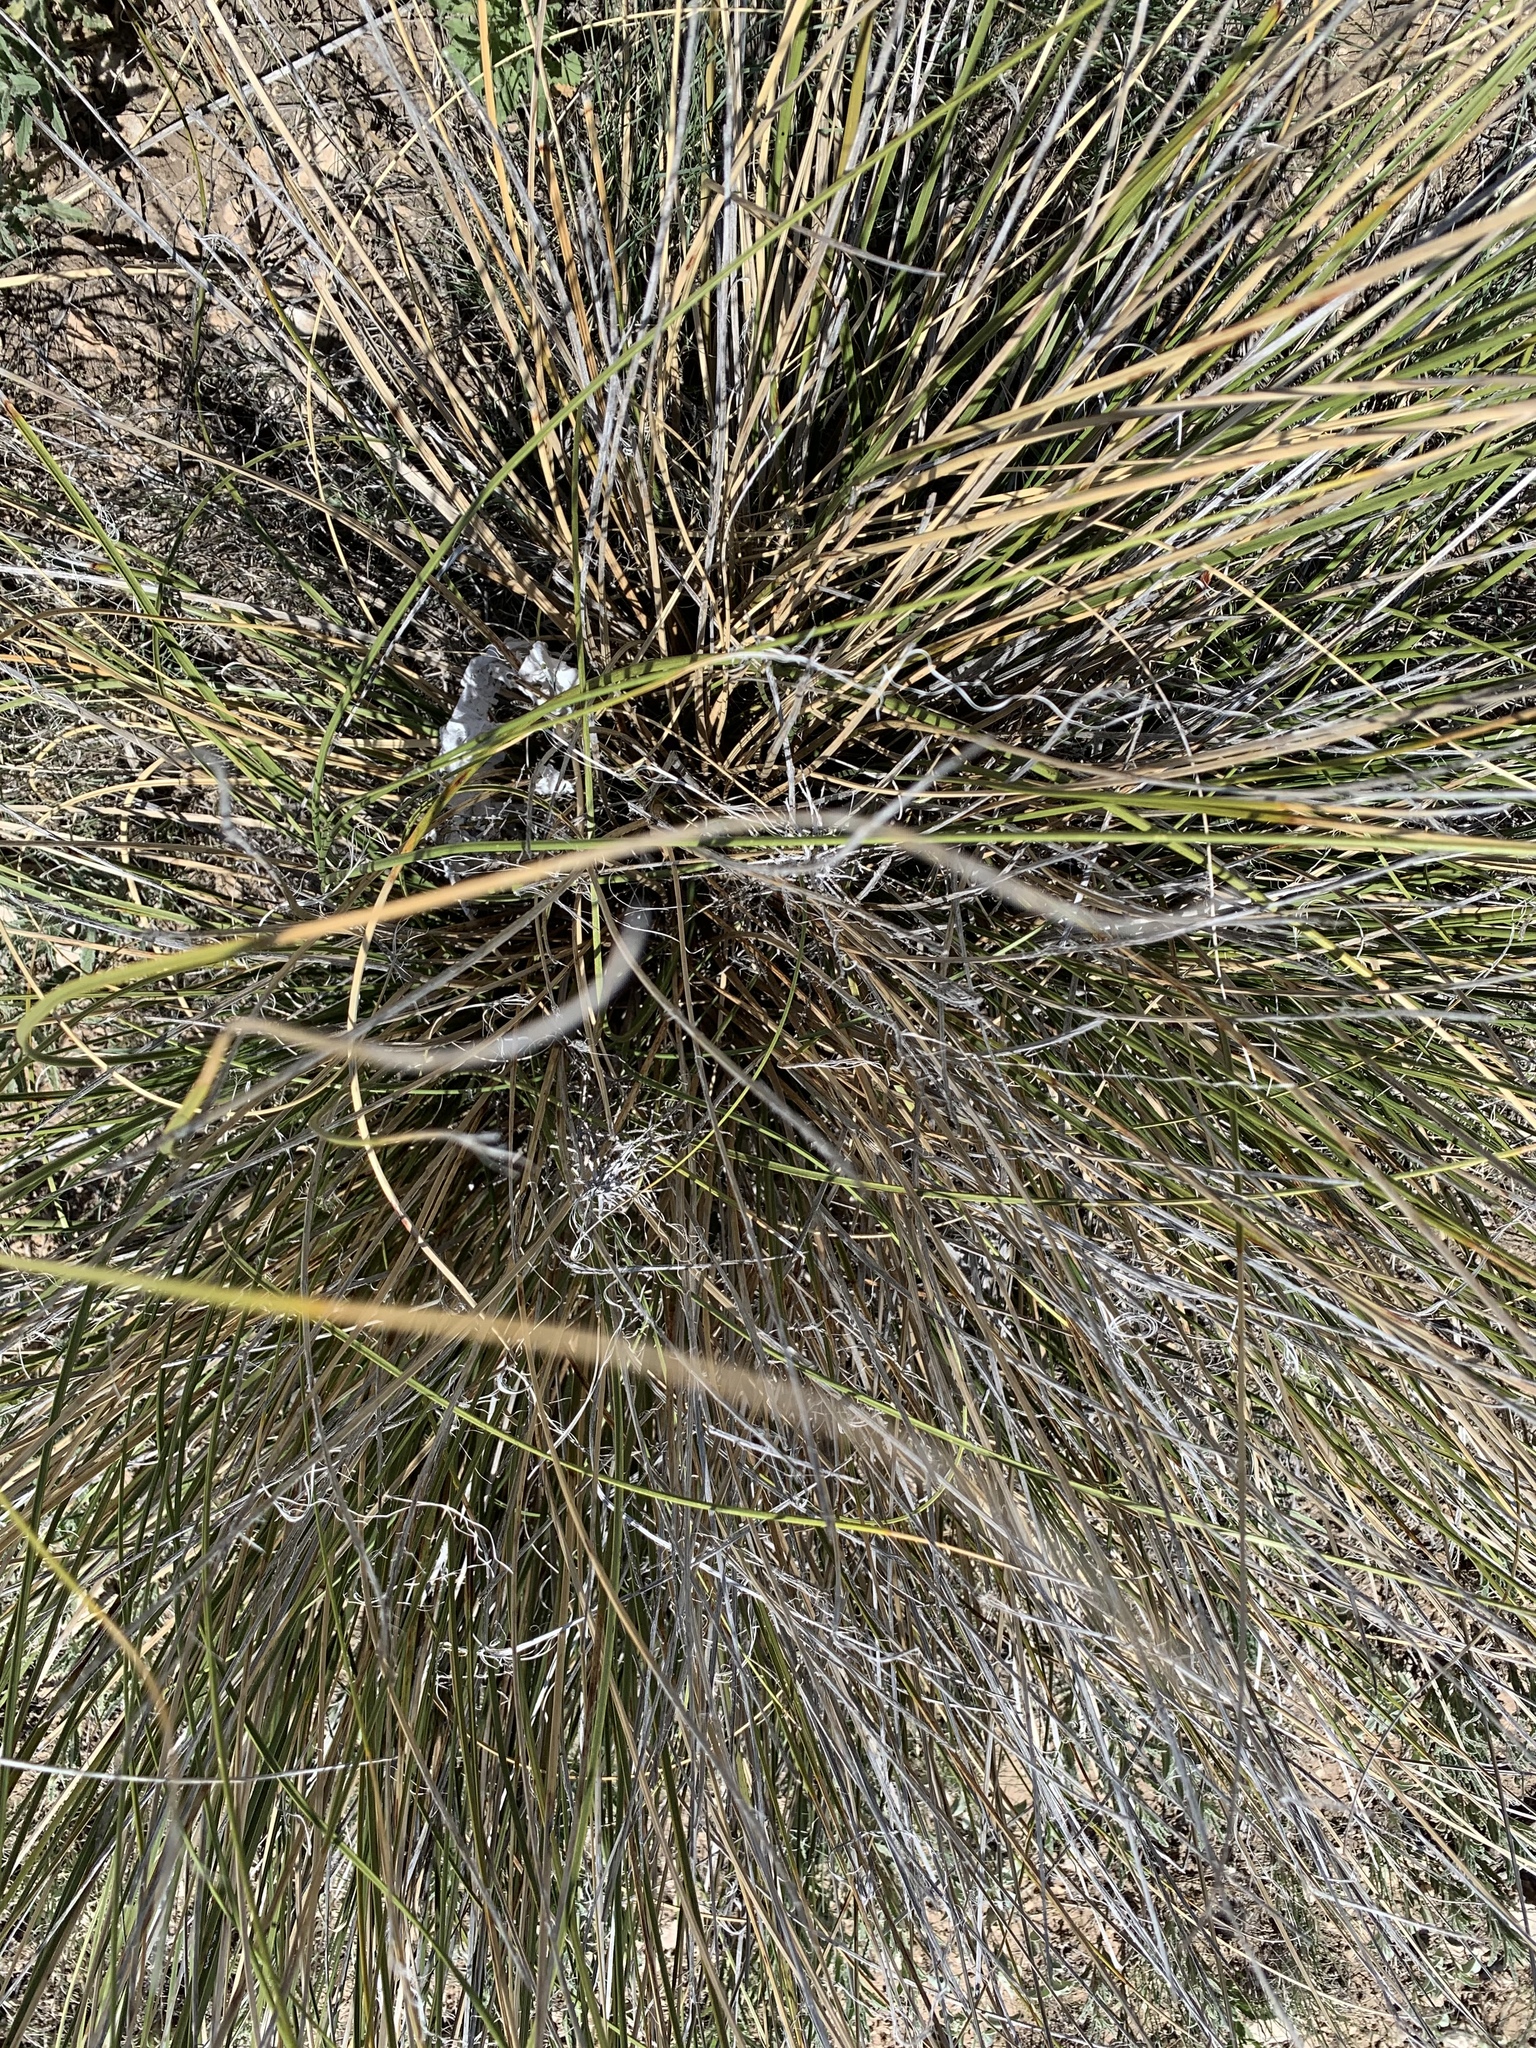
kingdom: Plantae
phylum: Tracheophyta
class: Liliopsida
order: Asparagales
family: Asparagaceae
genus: Nolina
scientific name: Nolina texana
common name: Texas sacahuiste
